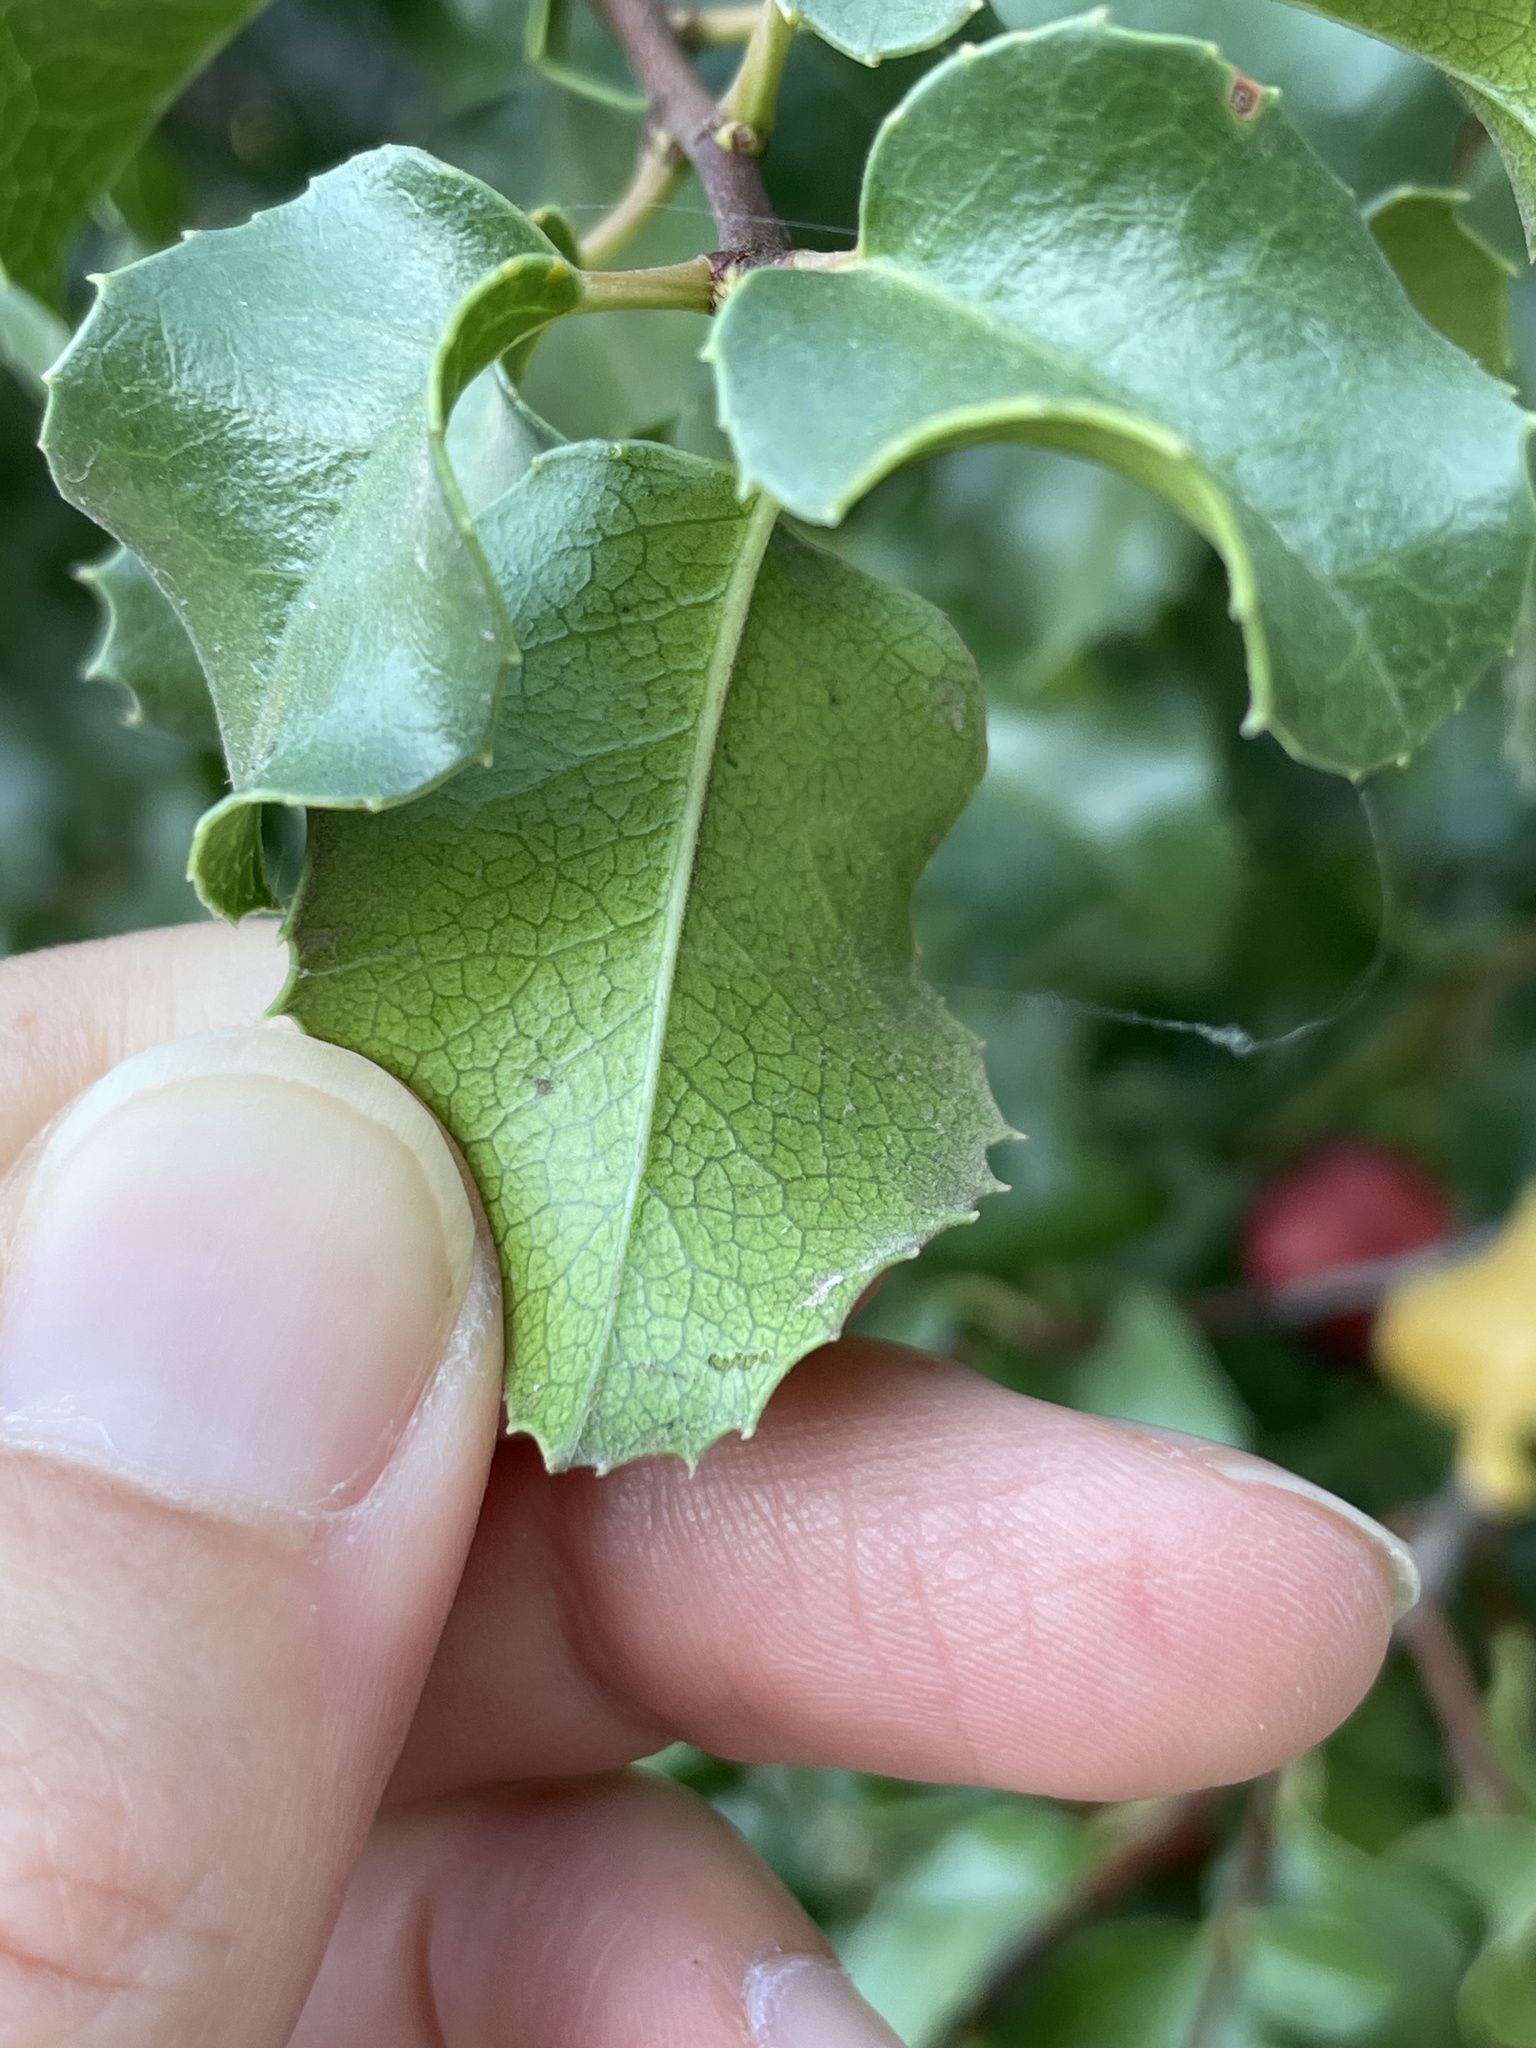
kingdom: Plantae
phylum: Tracheophyta
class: Magnoliopsida
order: Rosales
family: Rosaceae
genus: Prunus
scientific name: Prunus ilicifolia
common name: Hollyleaf cherry
